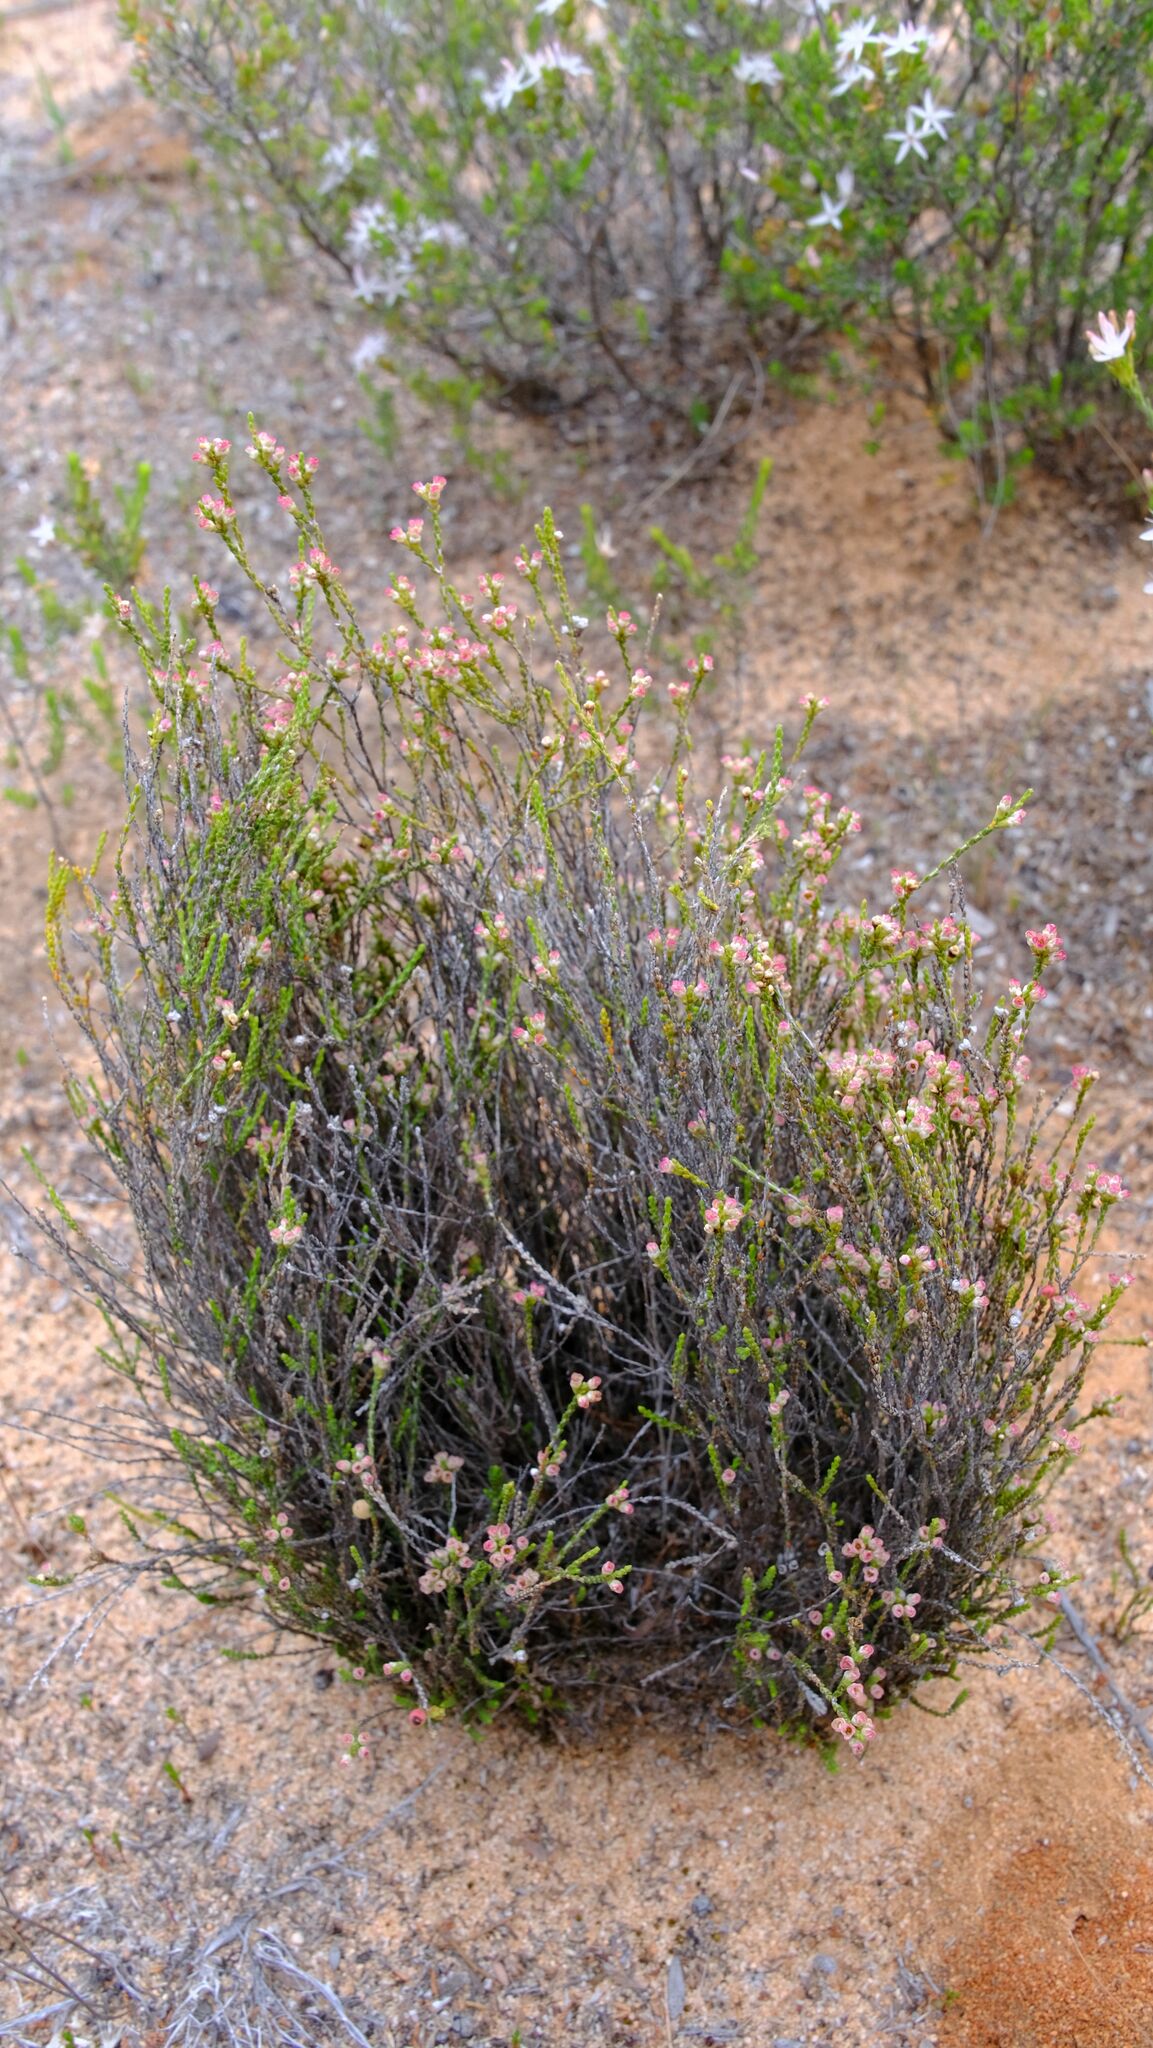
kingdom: Plantae
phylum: Tracheophyta
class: Magnoliopsida
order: Myrtales
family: Myrtaceae
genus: Micromyrtus
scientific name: Micromyrtus ciliata
